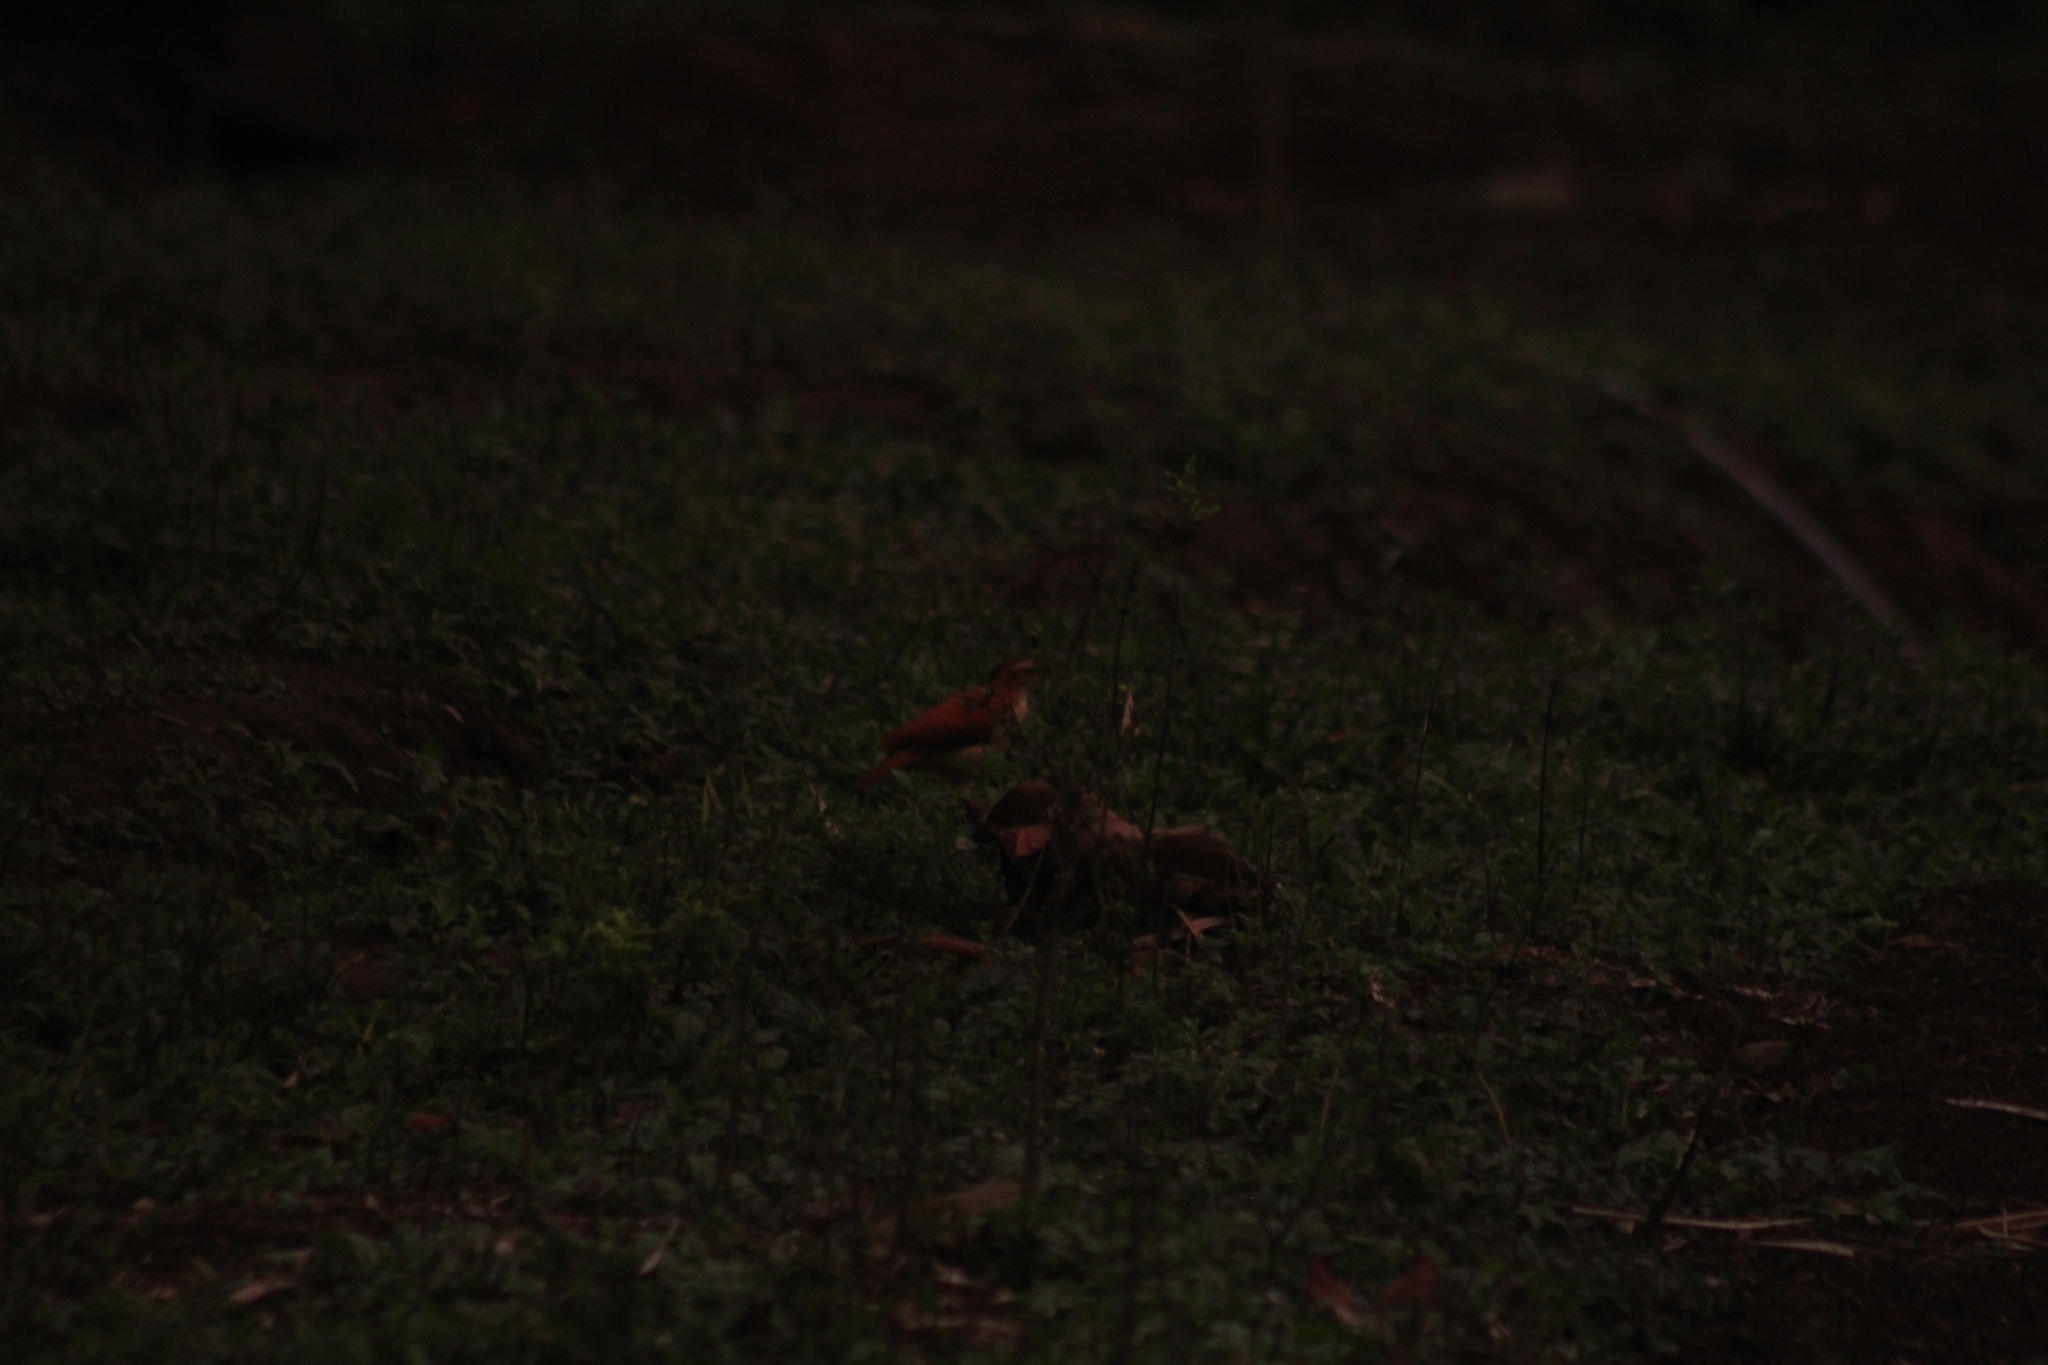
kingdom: Animalia
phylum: Chordata
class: Aves
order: Passeriformes
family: Furnariidae
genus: Furnarius
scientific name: Furnarius leucopus
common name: Pale-legged hornero
